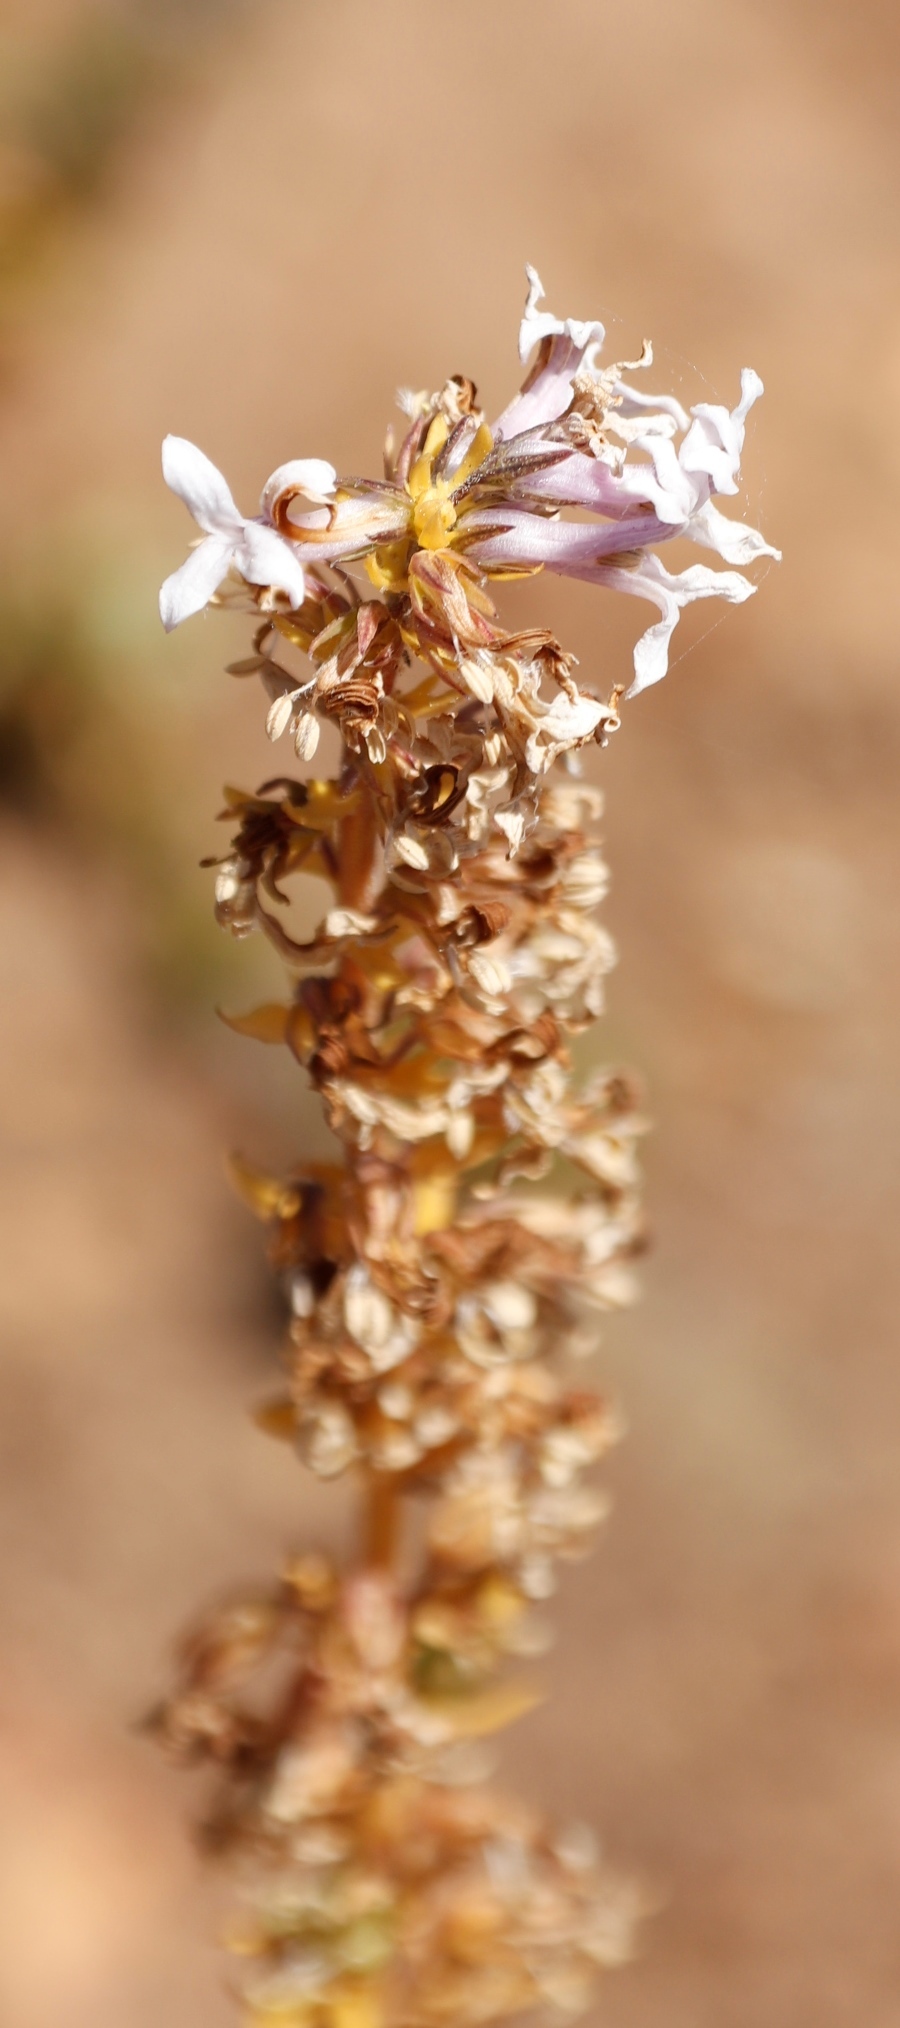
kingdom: Plantae
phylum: Tracheophyta
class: Magnoliopsida
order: Asterales
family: Campanulaceae
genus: Cyphia
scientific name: Cyphia bulbosa
